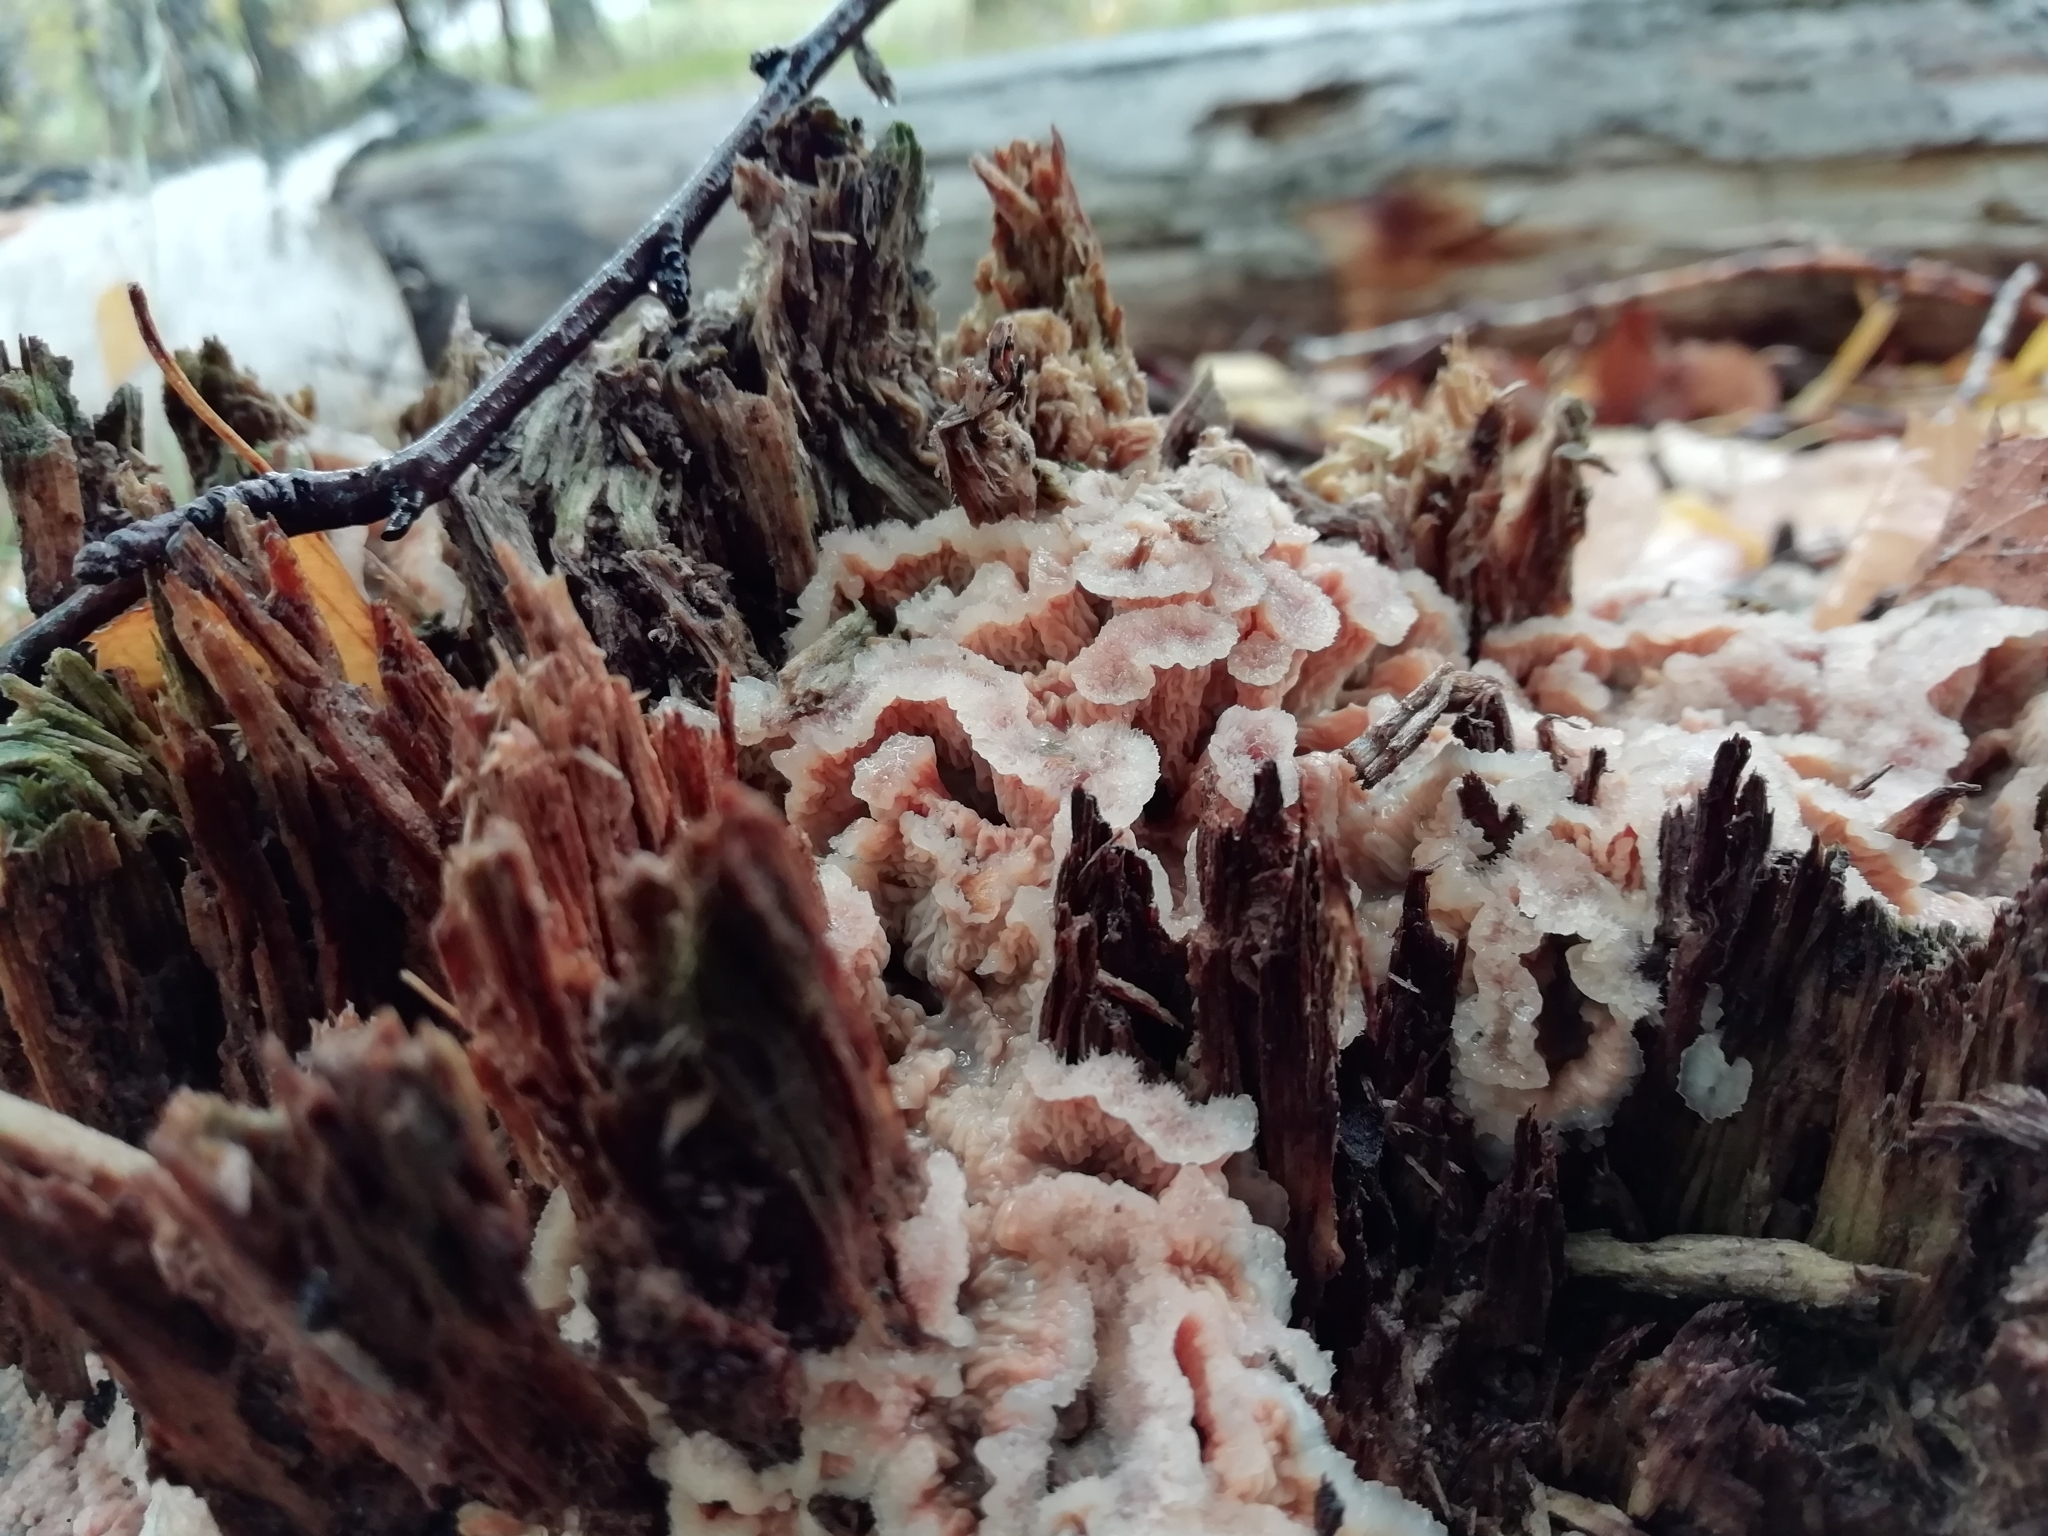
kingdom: Fungi
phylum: Basidiomycota
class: Agaricomycetes
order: Polyporales
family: Meruliaceae
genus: Phlebia
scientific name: Phlebia tremellosa
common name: Jelly rot
